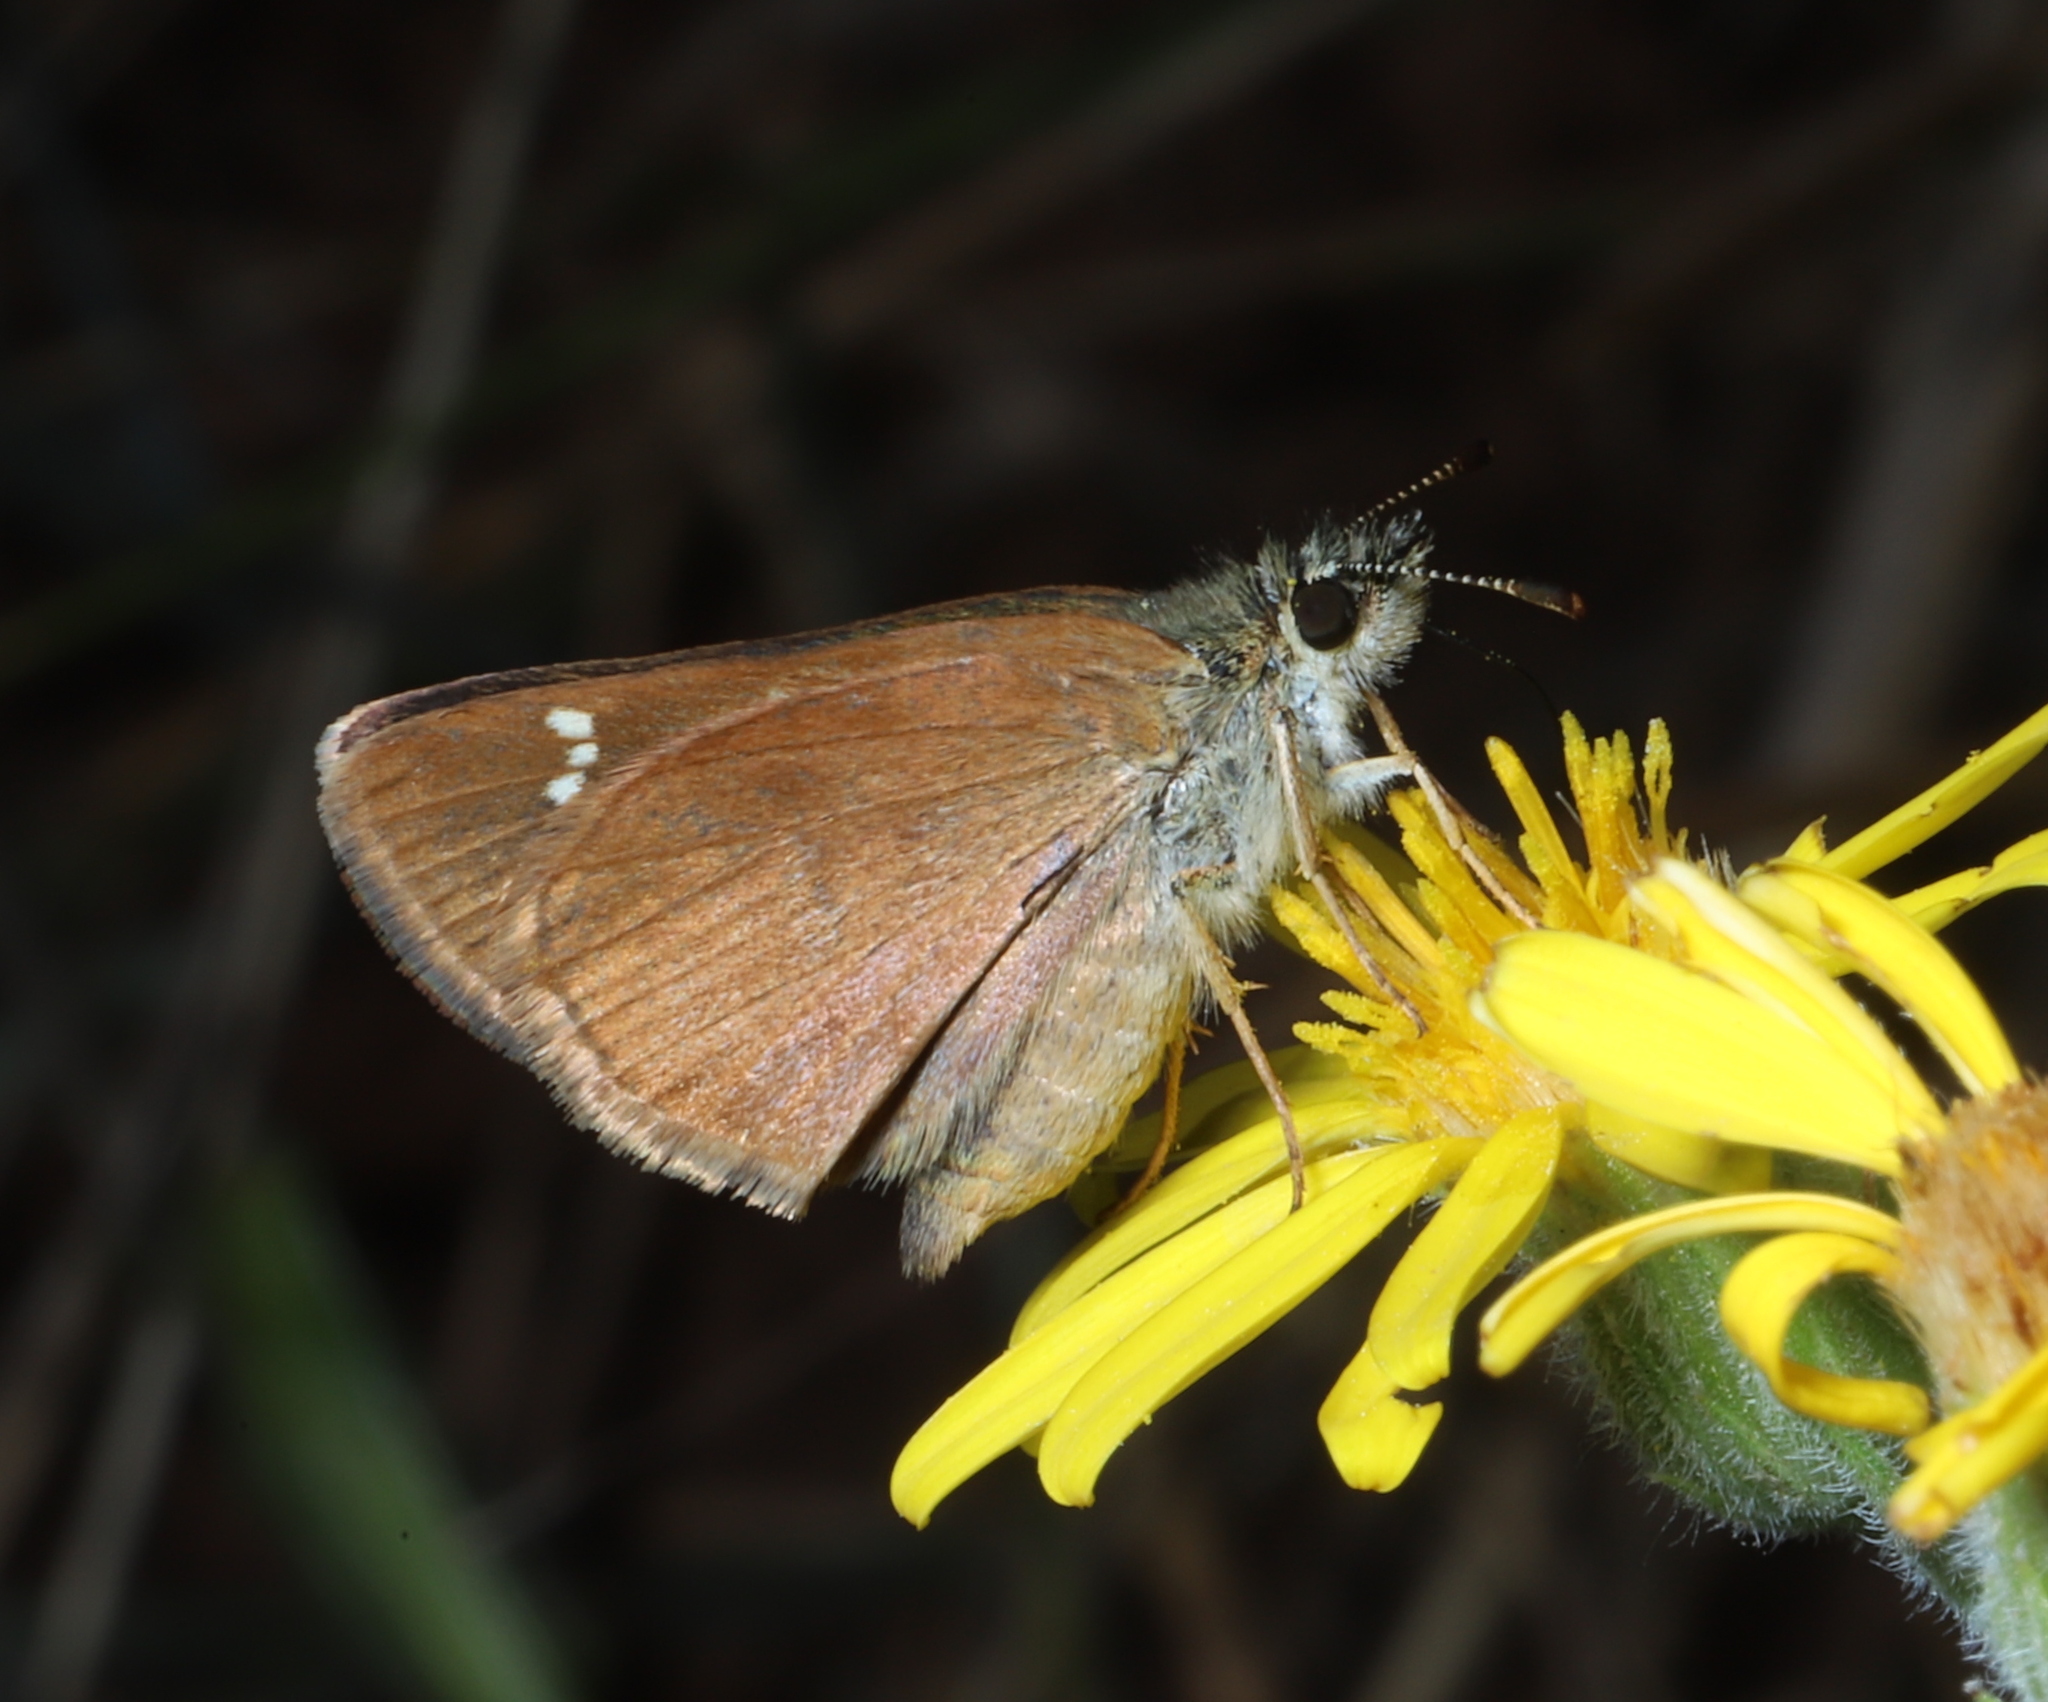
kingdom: Animalia
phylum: Arthropoda
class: Insecta
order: Lepidoptera
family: Hesperiidae
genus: Piruna
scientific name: Piruna pirus
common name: Russet skipperling
